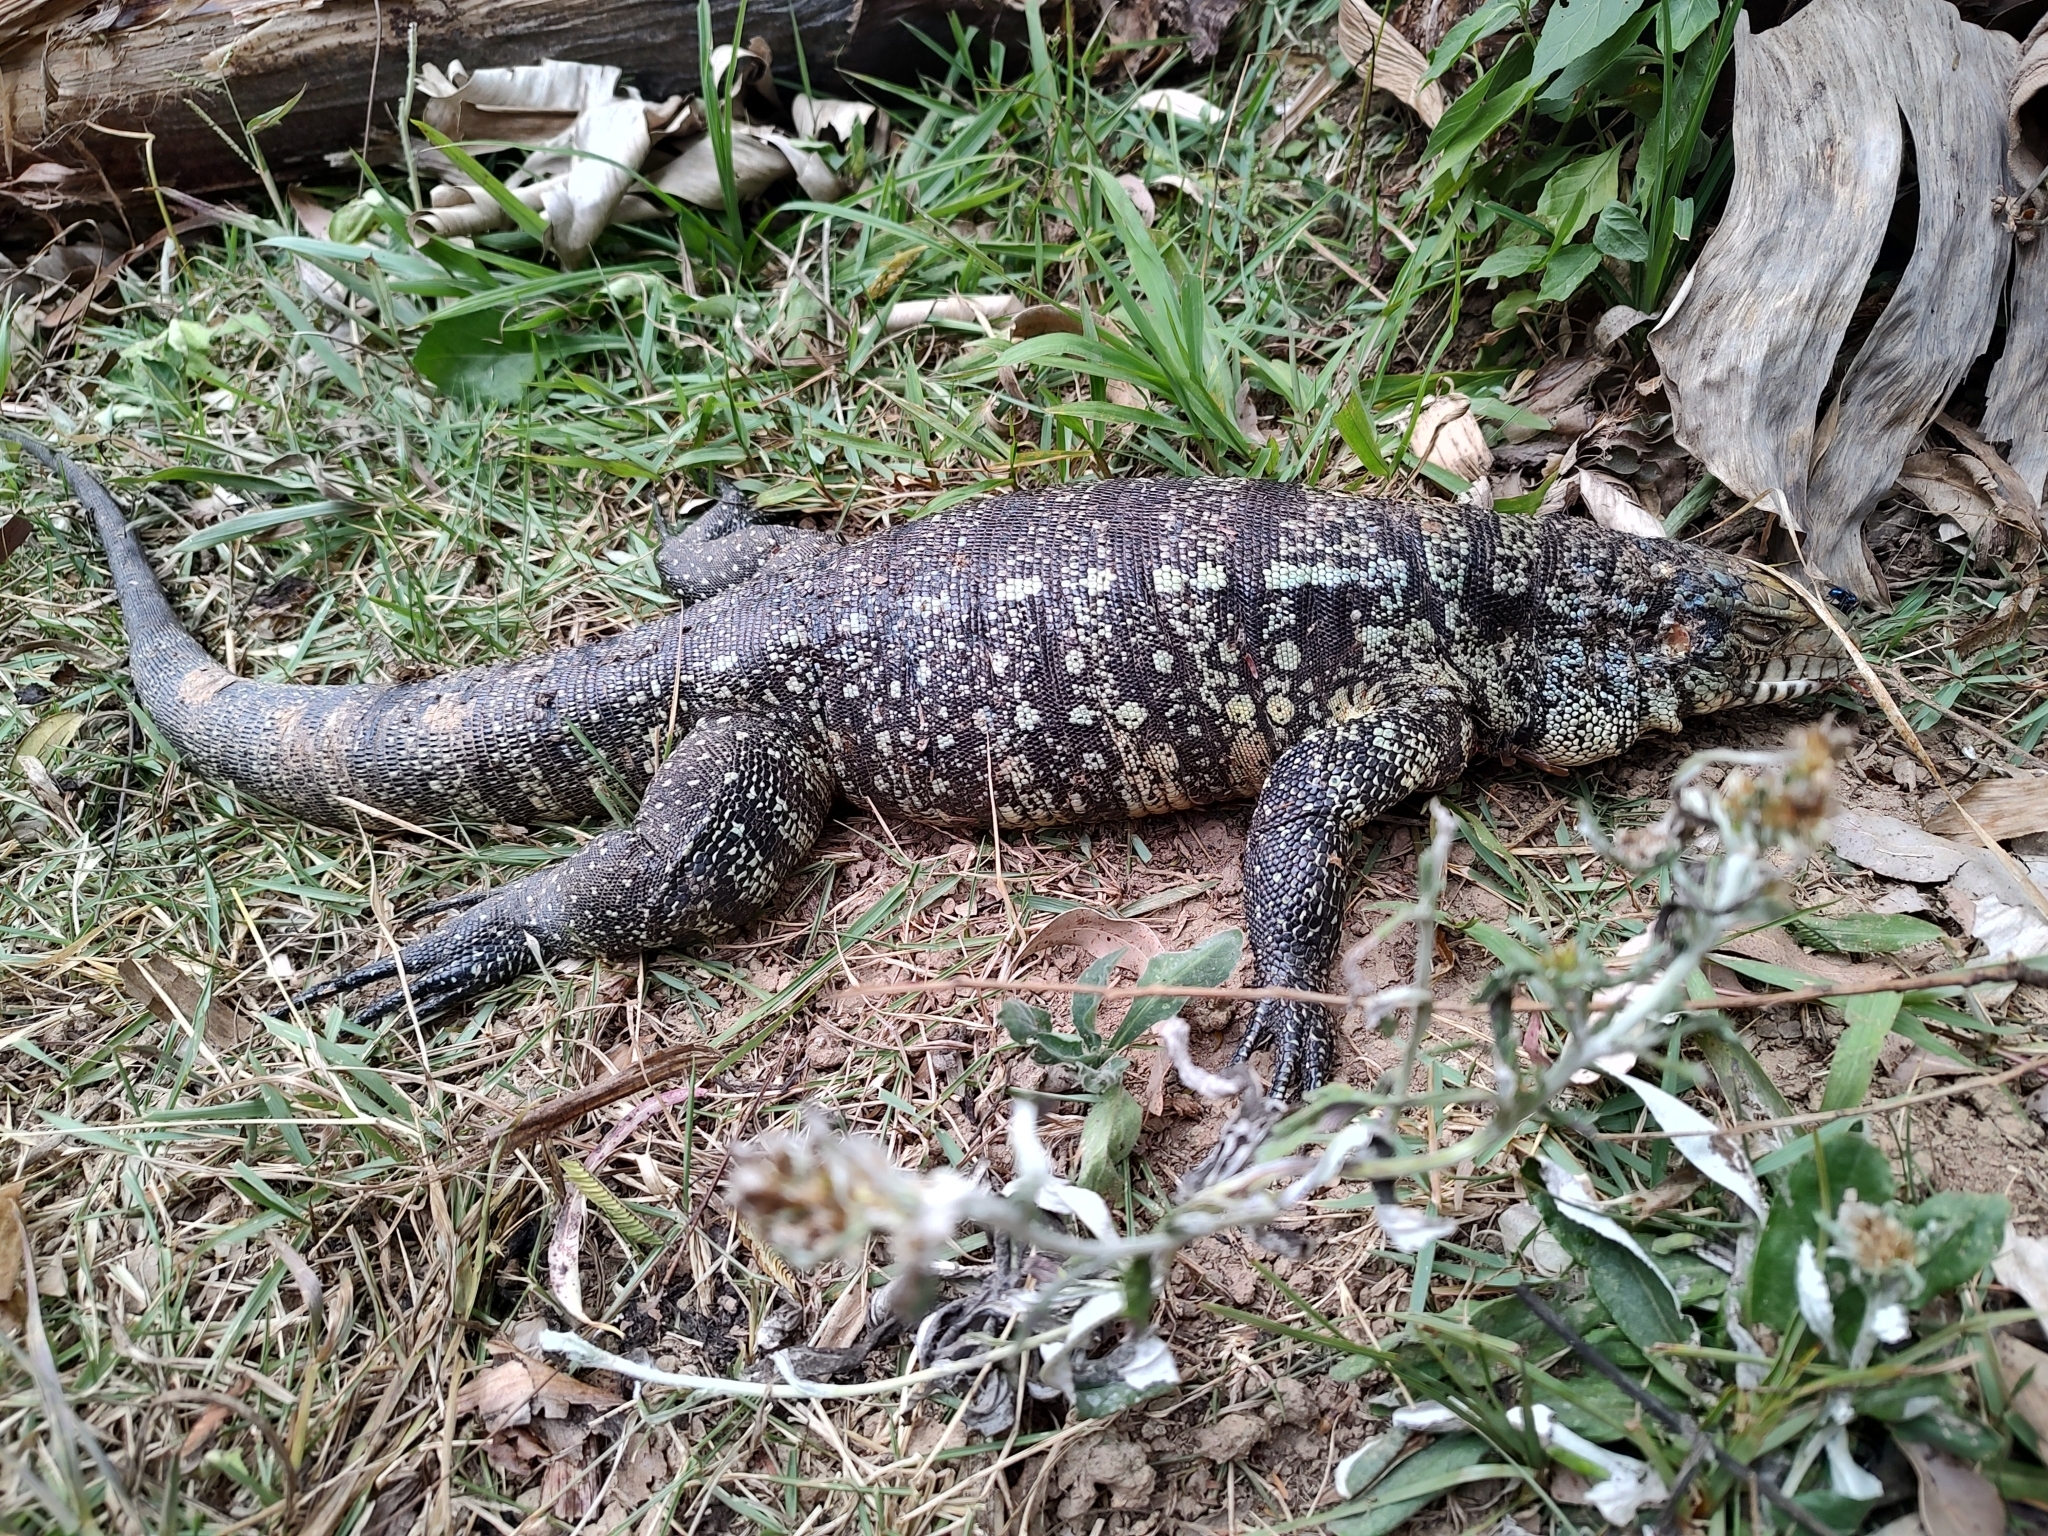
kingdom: Animalia
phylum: Chordata
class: Squamata
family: Teiidae
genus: Salvator
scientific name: Salvator merianae
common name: Argentine black and white tegu
